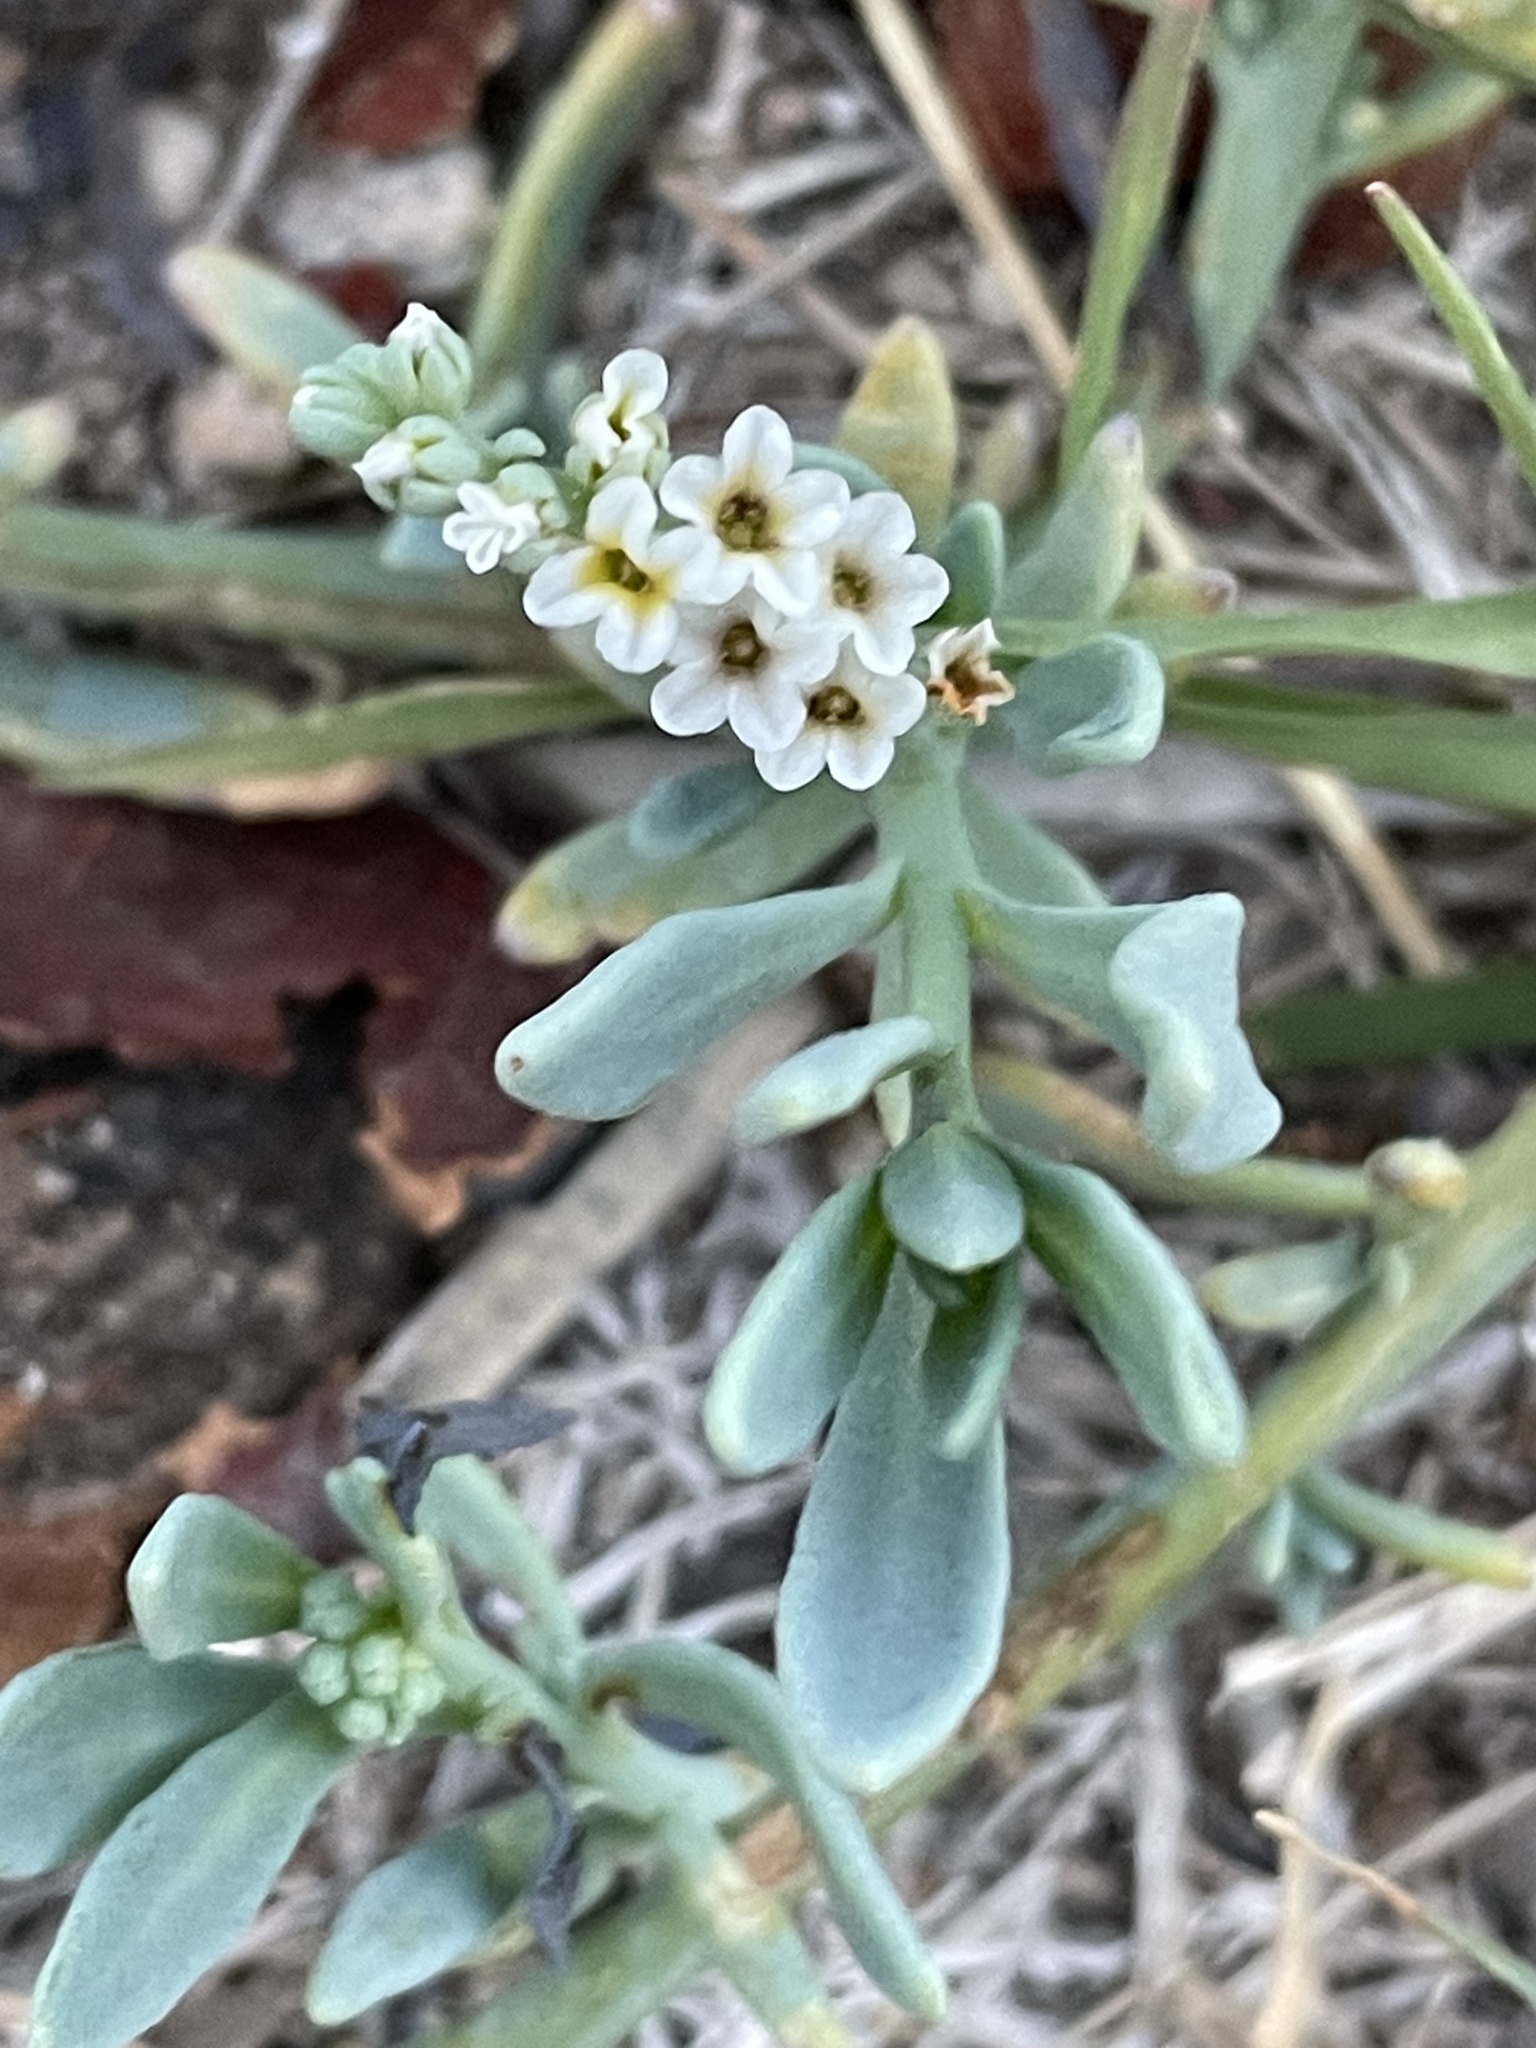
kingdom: Plantae
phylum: Tracheophyta
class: Magnoliopsida
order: Boraginales
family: Heliotropiaceae
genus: Heliotropium
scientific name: Heliotropium curassavicum
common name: Seaside heliotrope
